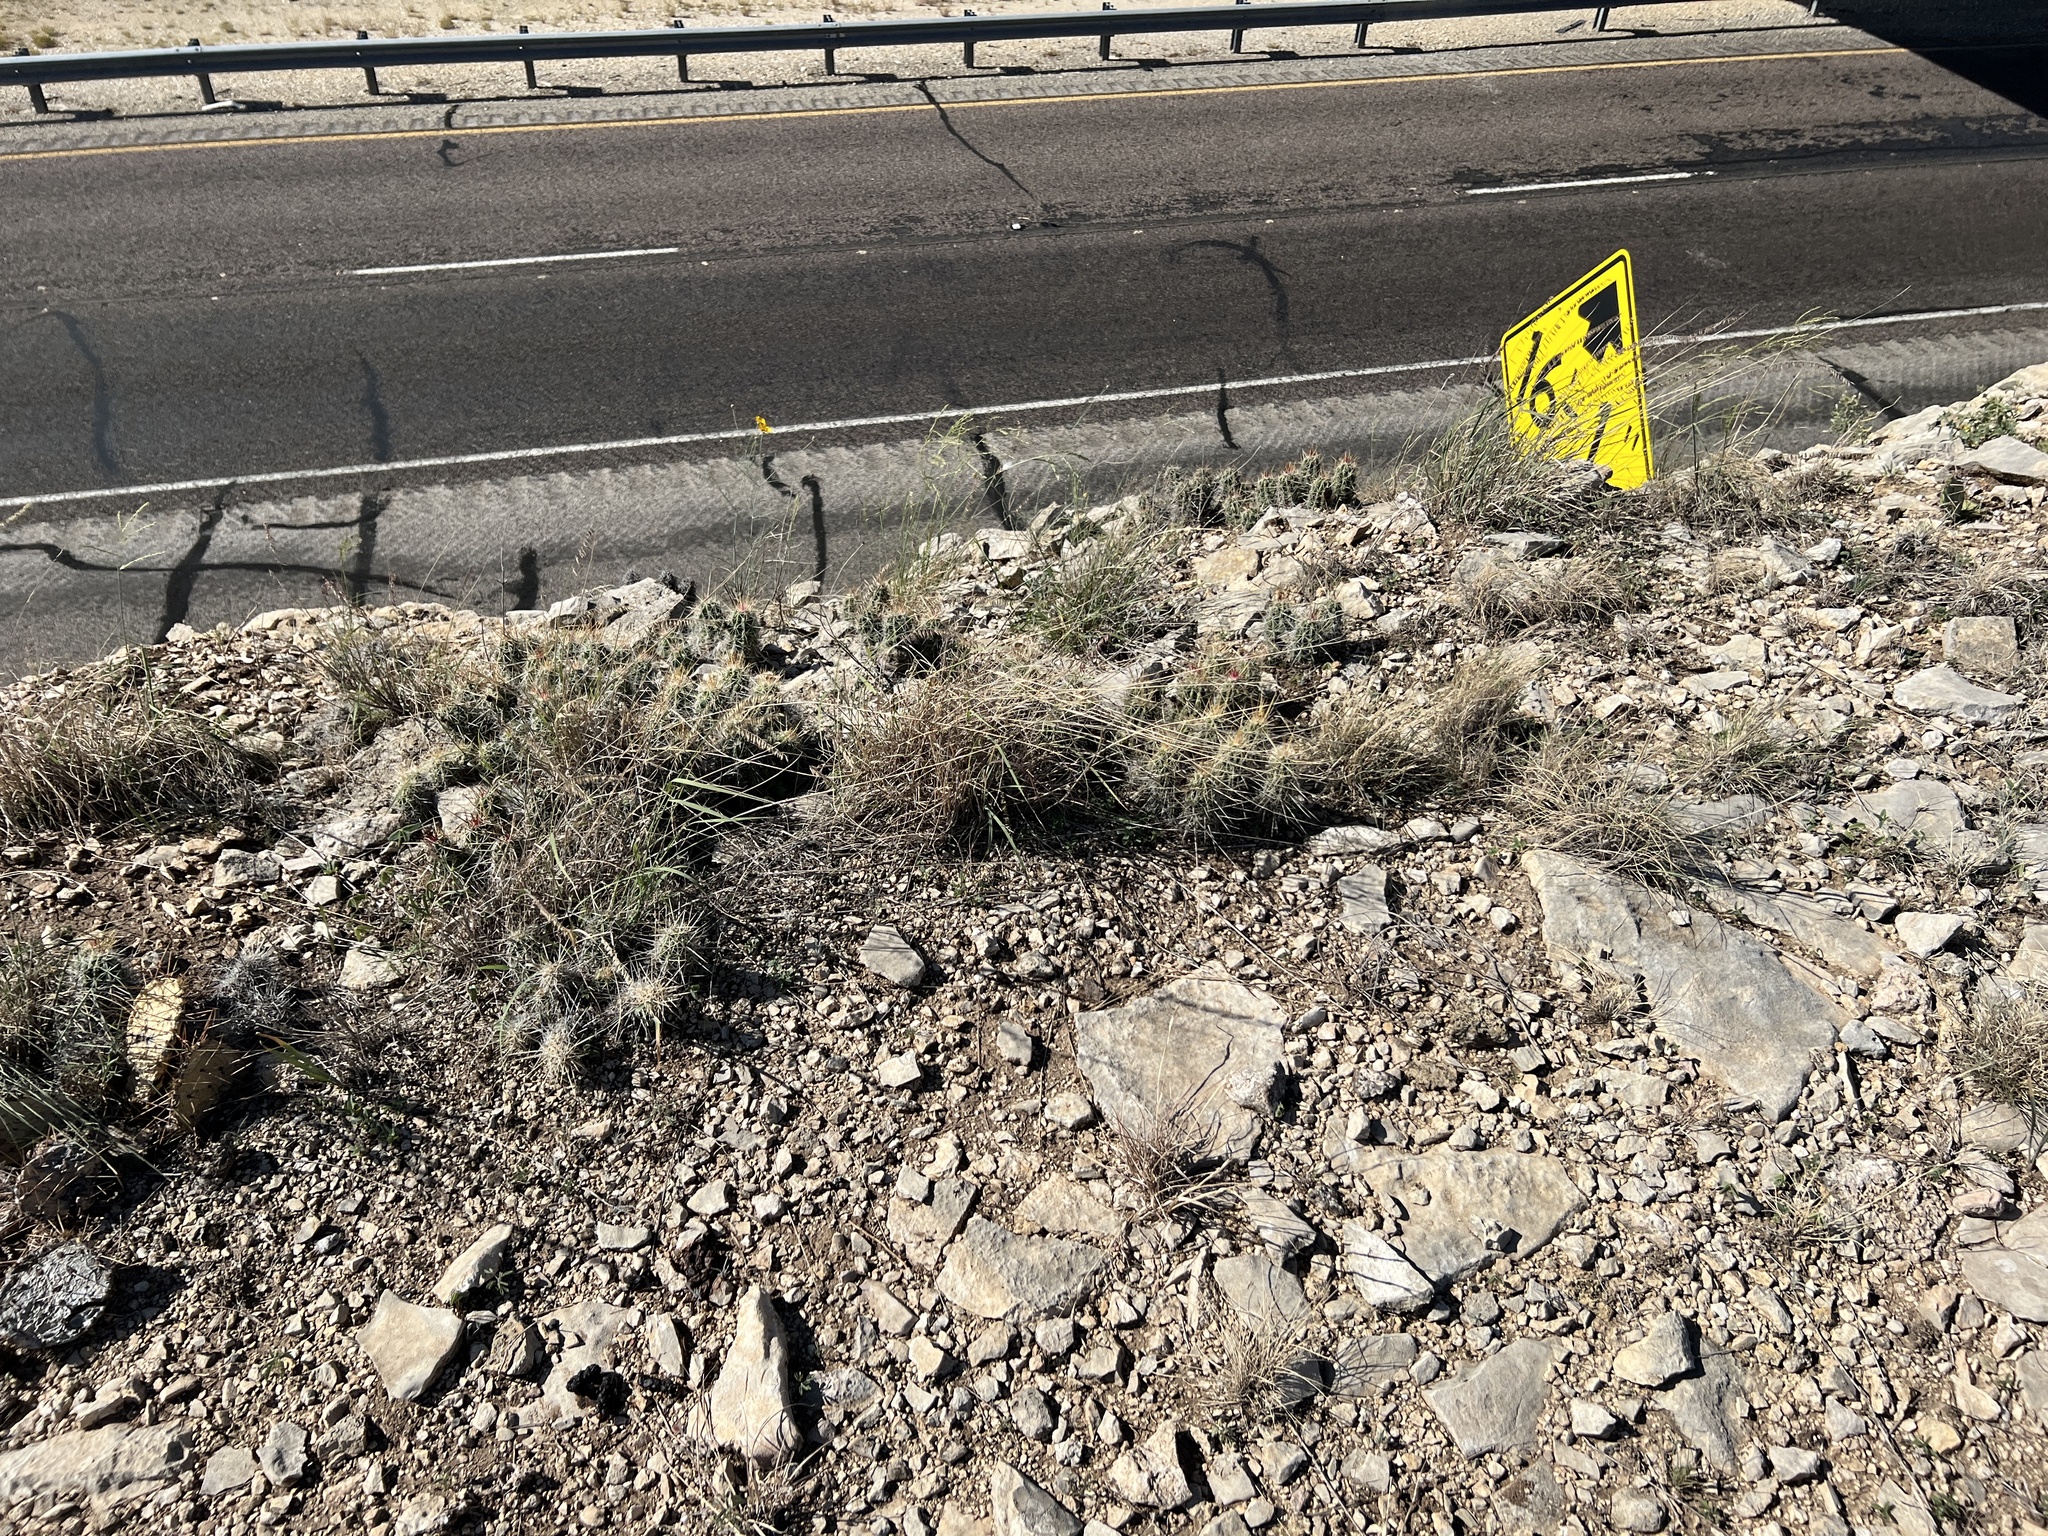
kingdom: Plantae
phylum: Tracheophyta
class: Magnoliopsida
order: Caryophyllales
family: Cactaceae
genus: Echinocereus
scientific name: Echinocereus enneacanthus
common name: Pitaya
